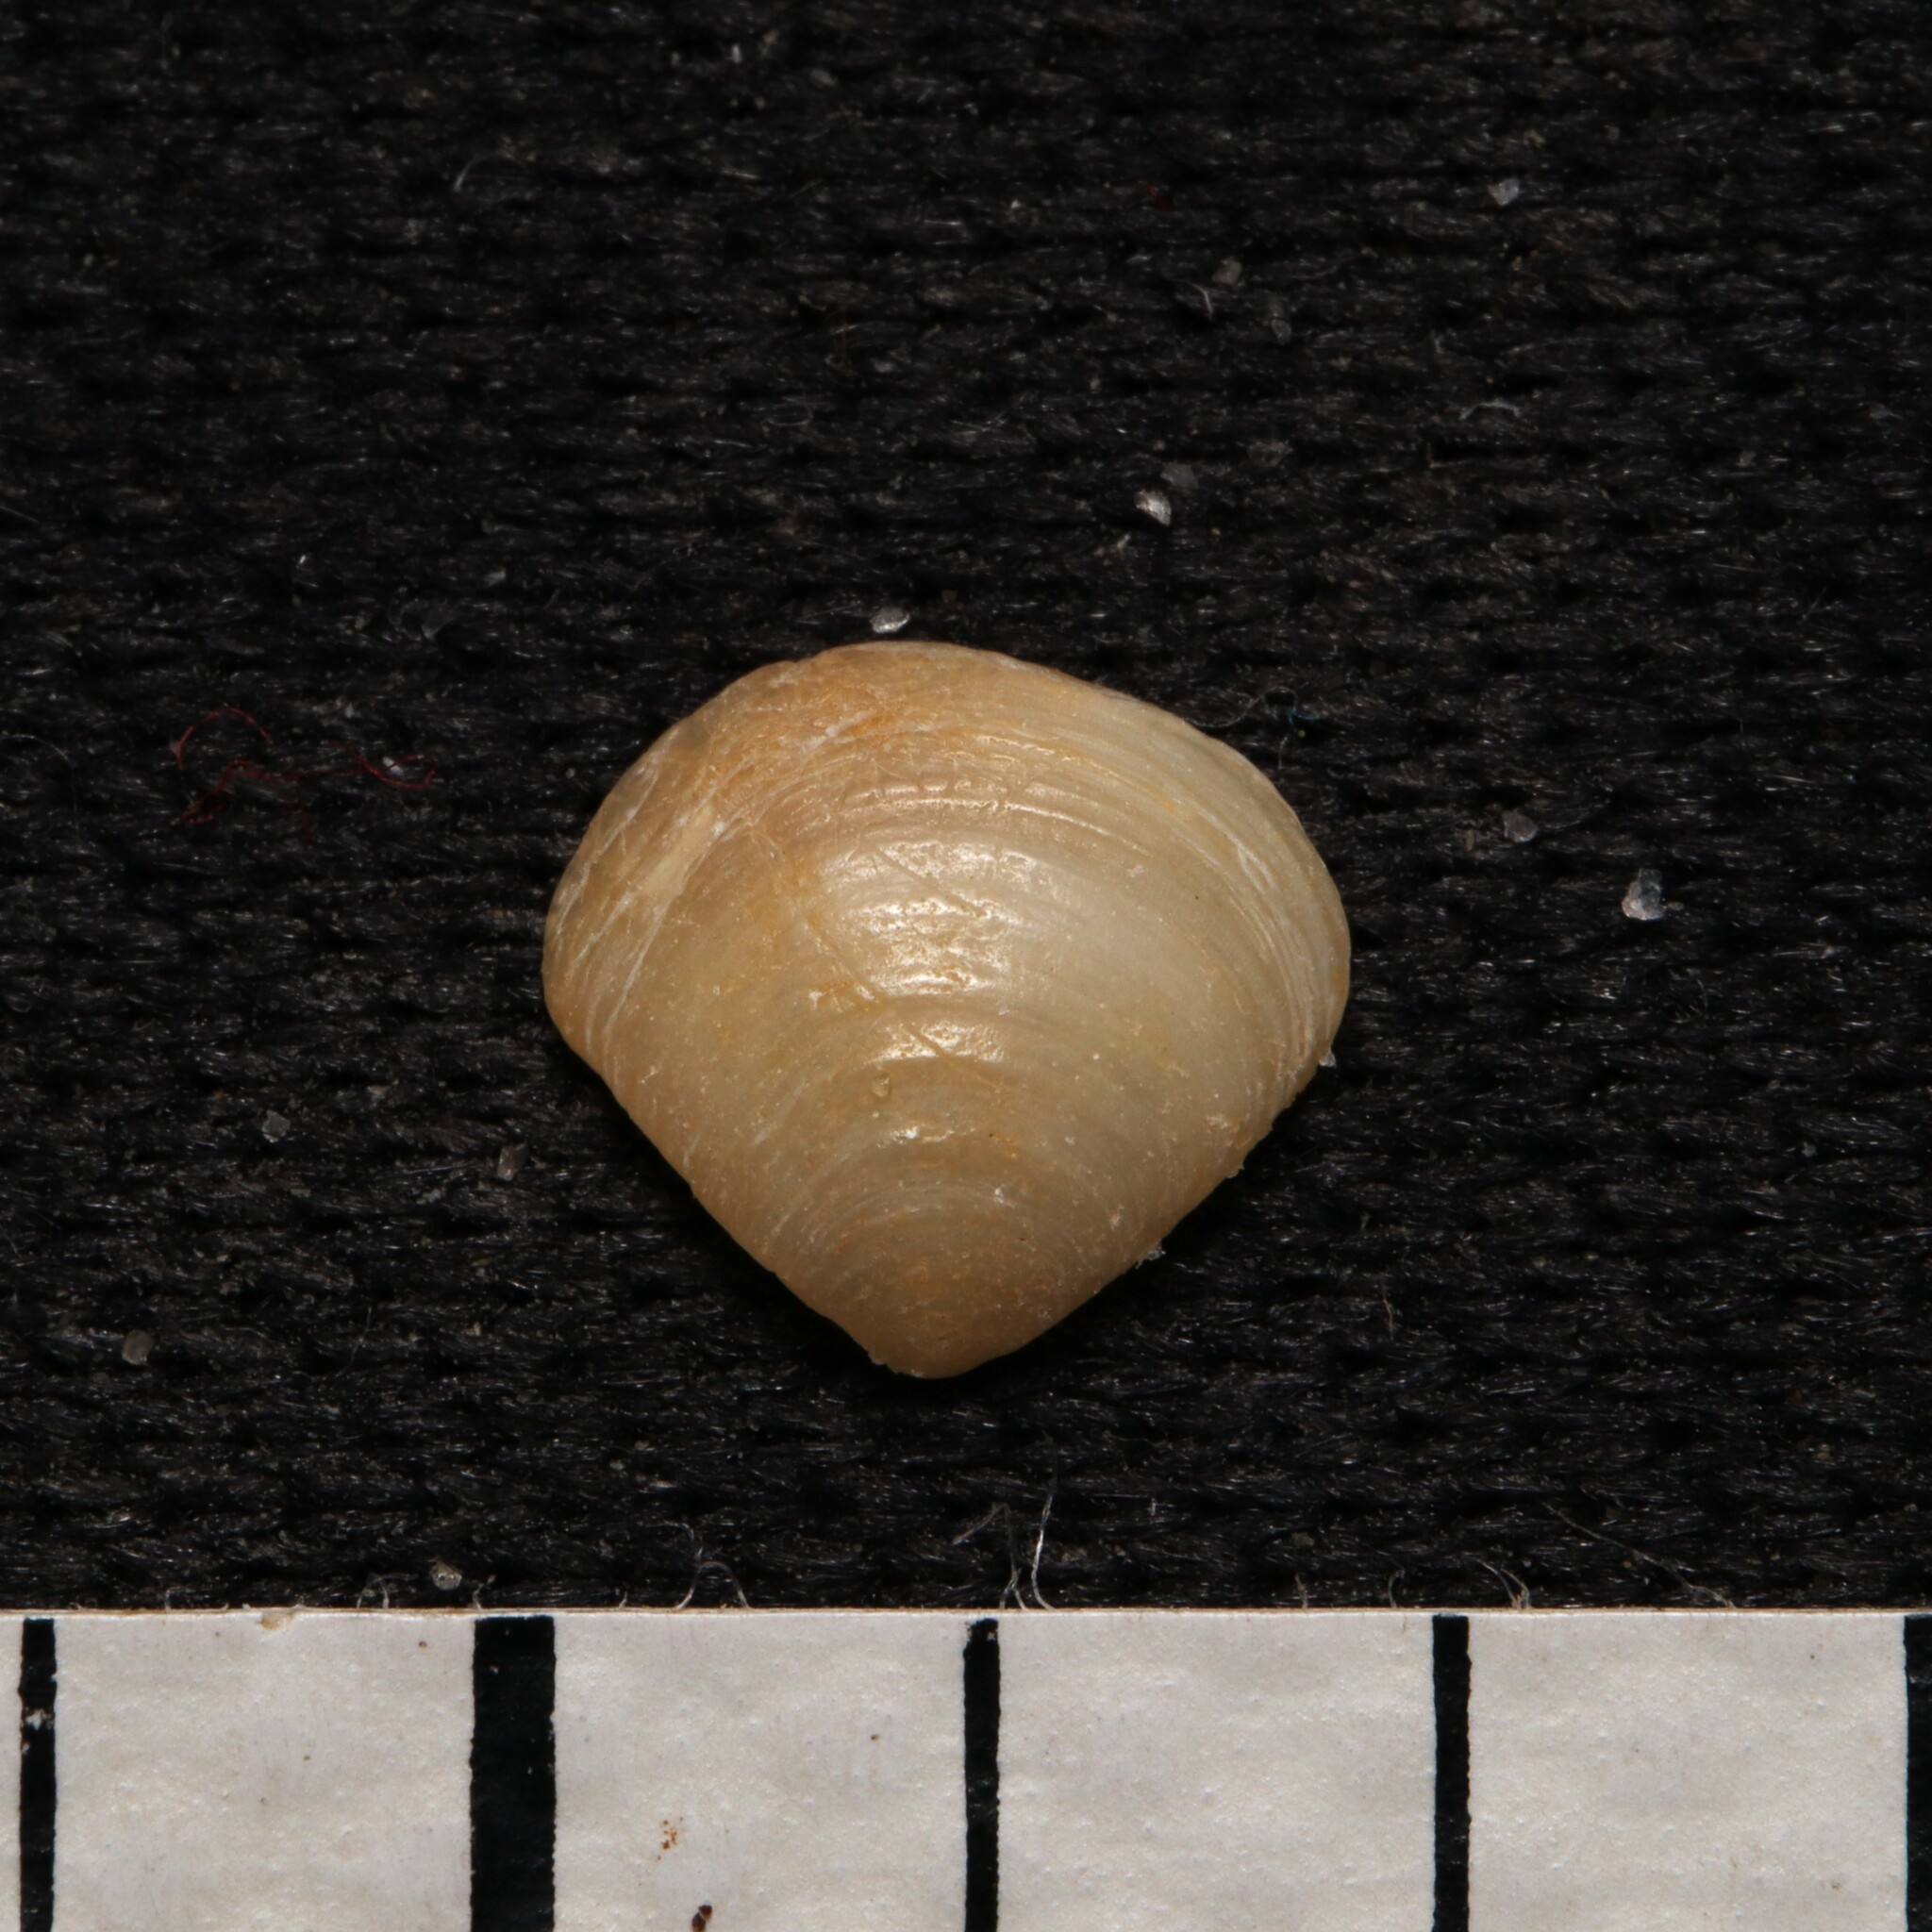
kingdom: Animalia
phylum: Mollusca
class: Bivalvia
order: Carditida
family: Crassatellidae
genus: Crassinella
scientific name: Crassinella lunulata
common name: Lunate crassinella
